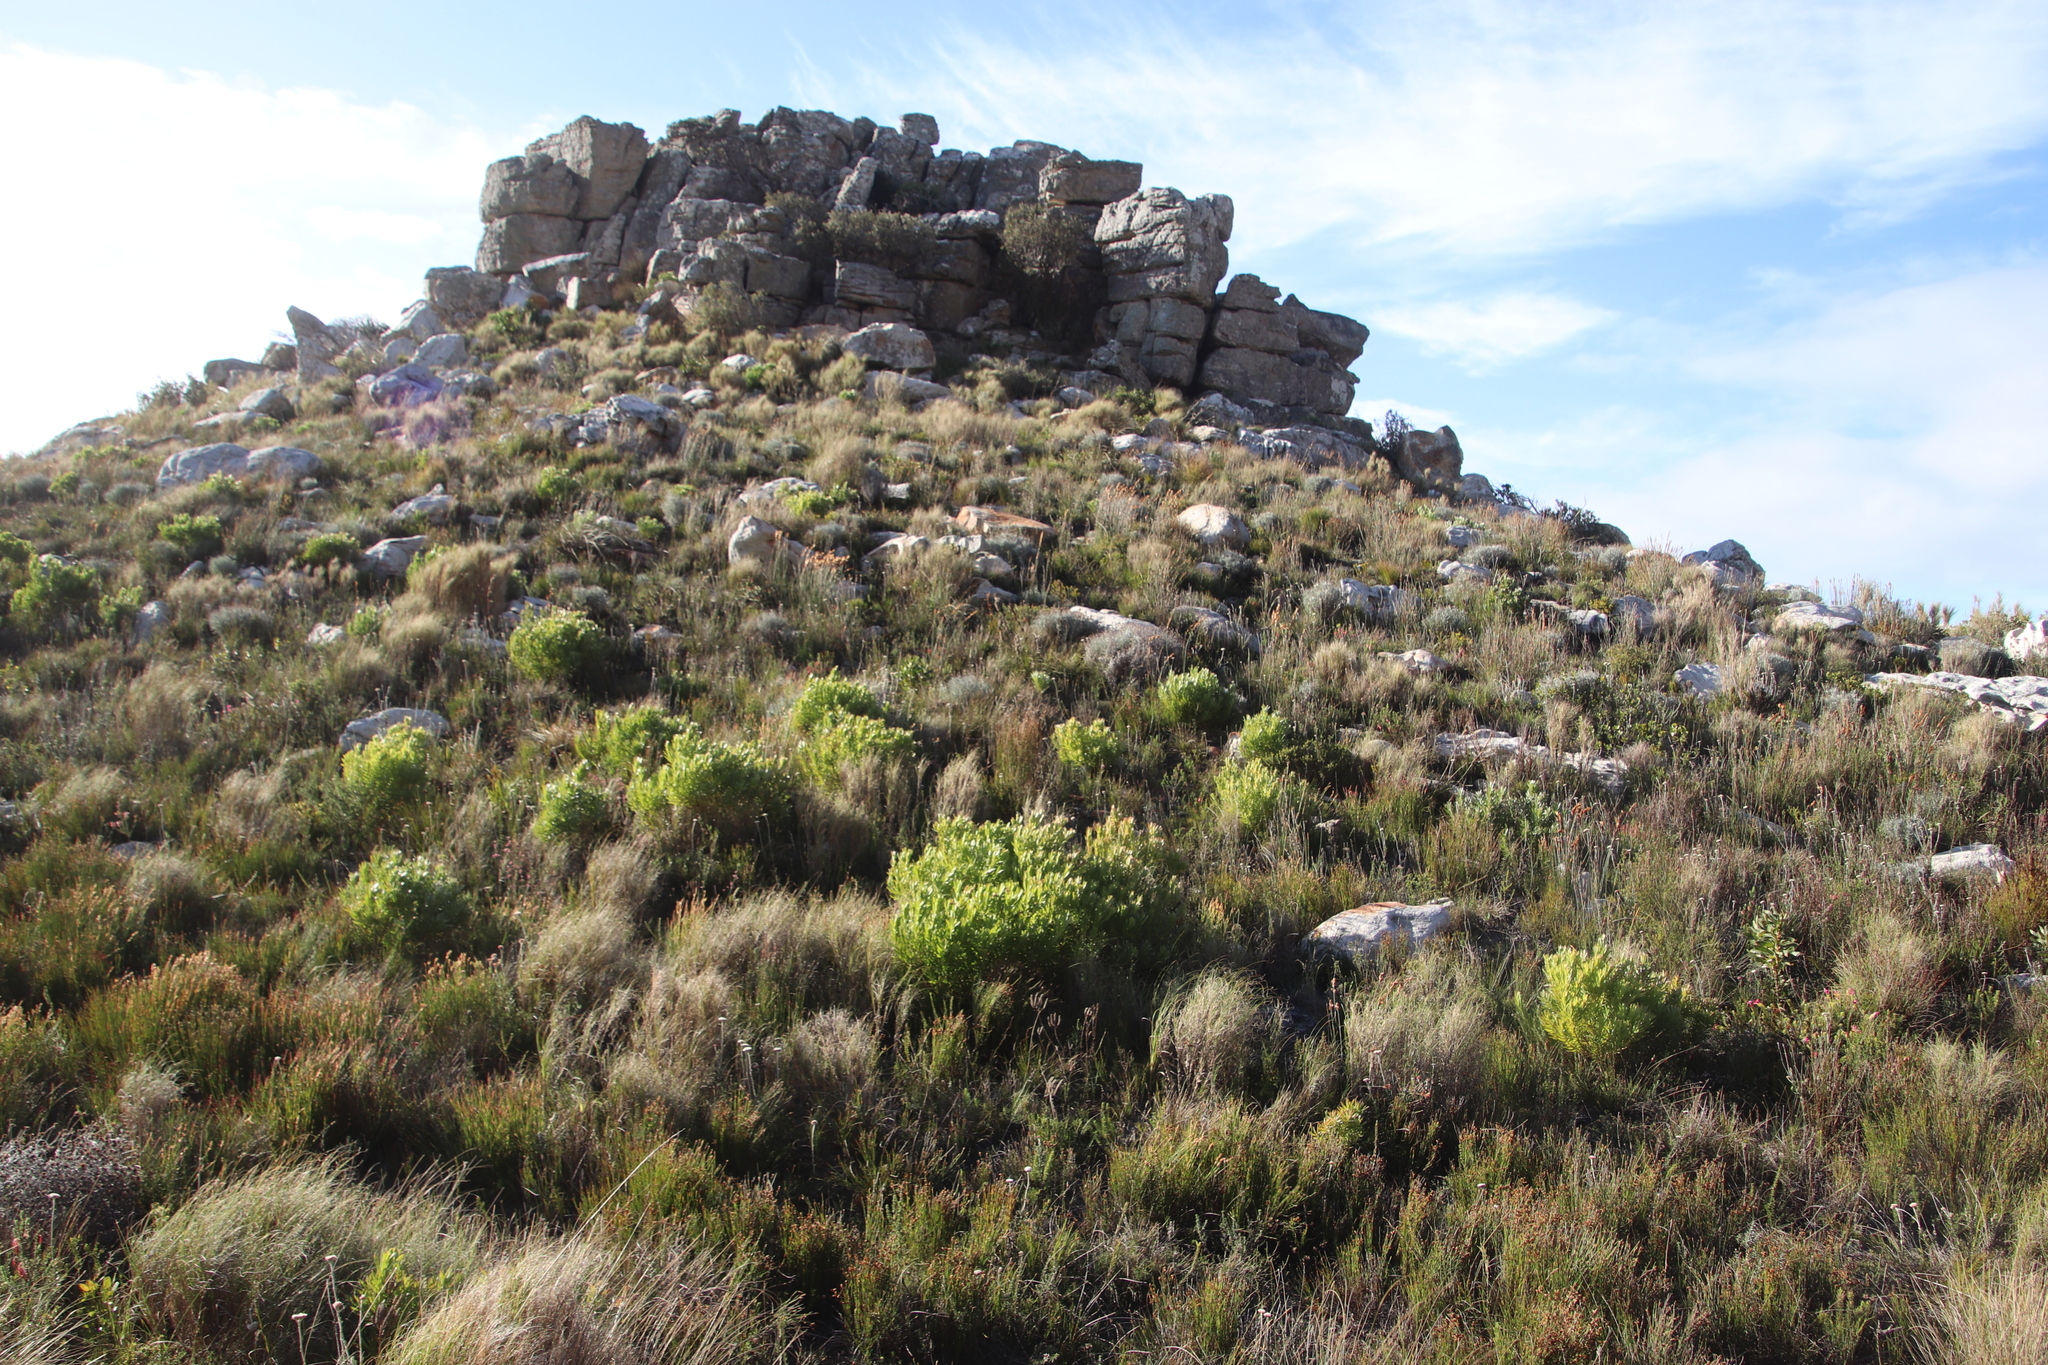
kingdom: Plantae
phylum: Tracheophyta
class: Magnoliopsida
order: Proteales
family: Proteaceae
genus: Leucadendron
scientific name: Leucadendron xanthoconus
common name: Sickle-leaf conebush
